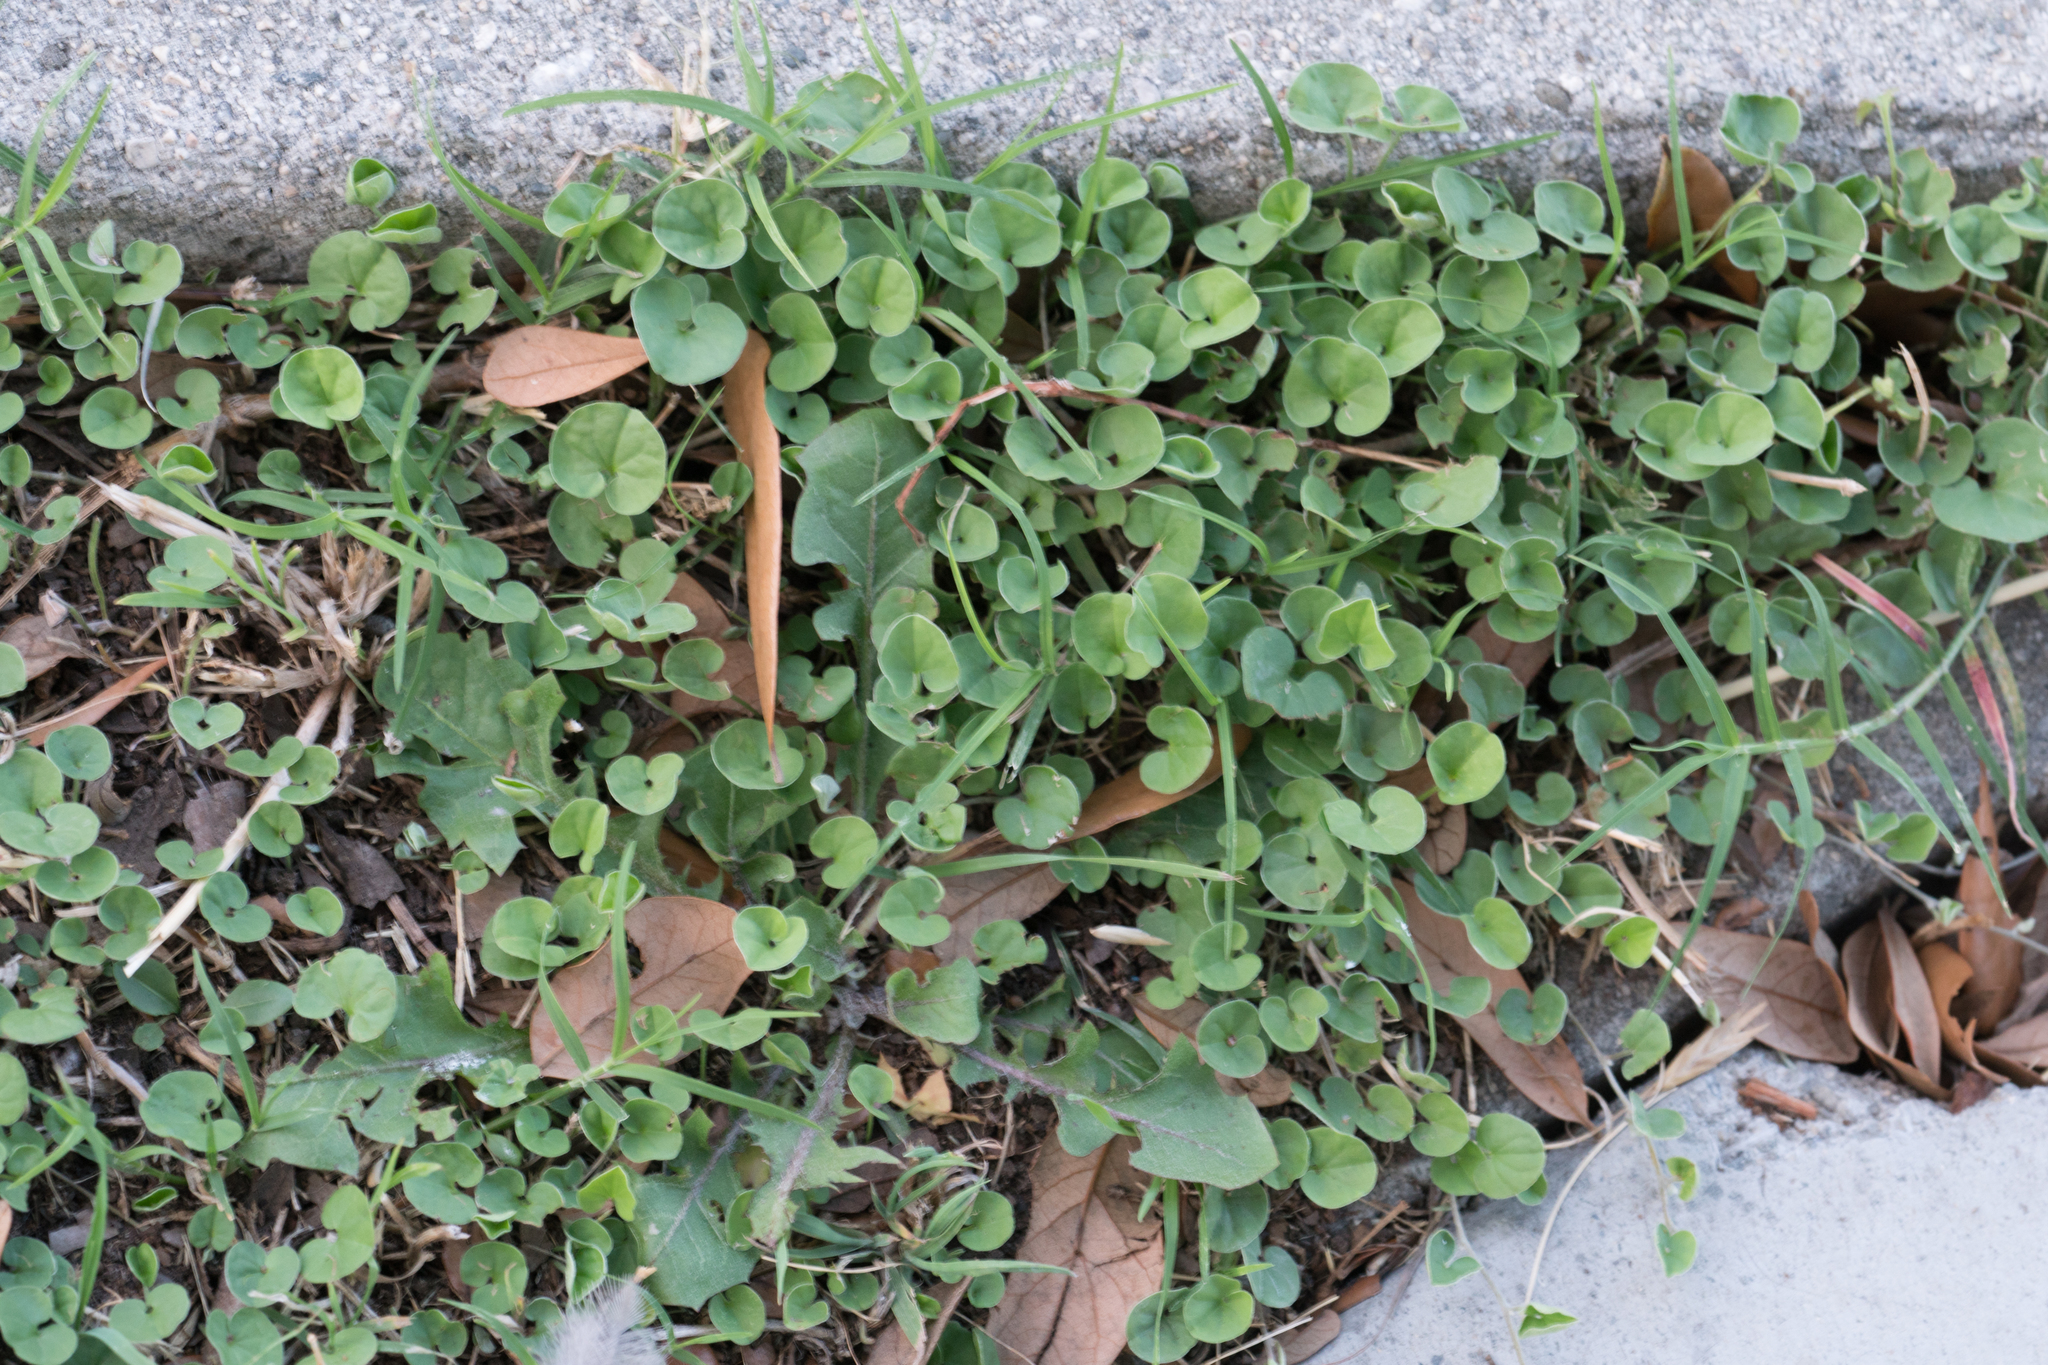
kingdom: Plantae
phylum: Tracheophyta
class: Magnoliopsida
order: Solanales
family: Convolvulaceae
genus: Dichondra
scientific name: Dichondra micrantha
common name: Kidneyweed
